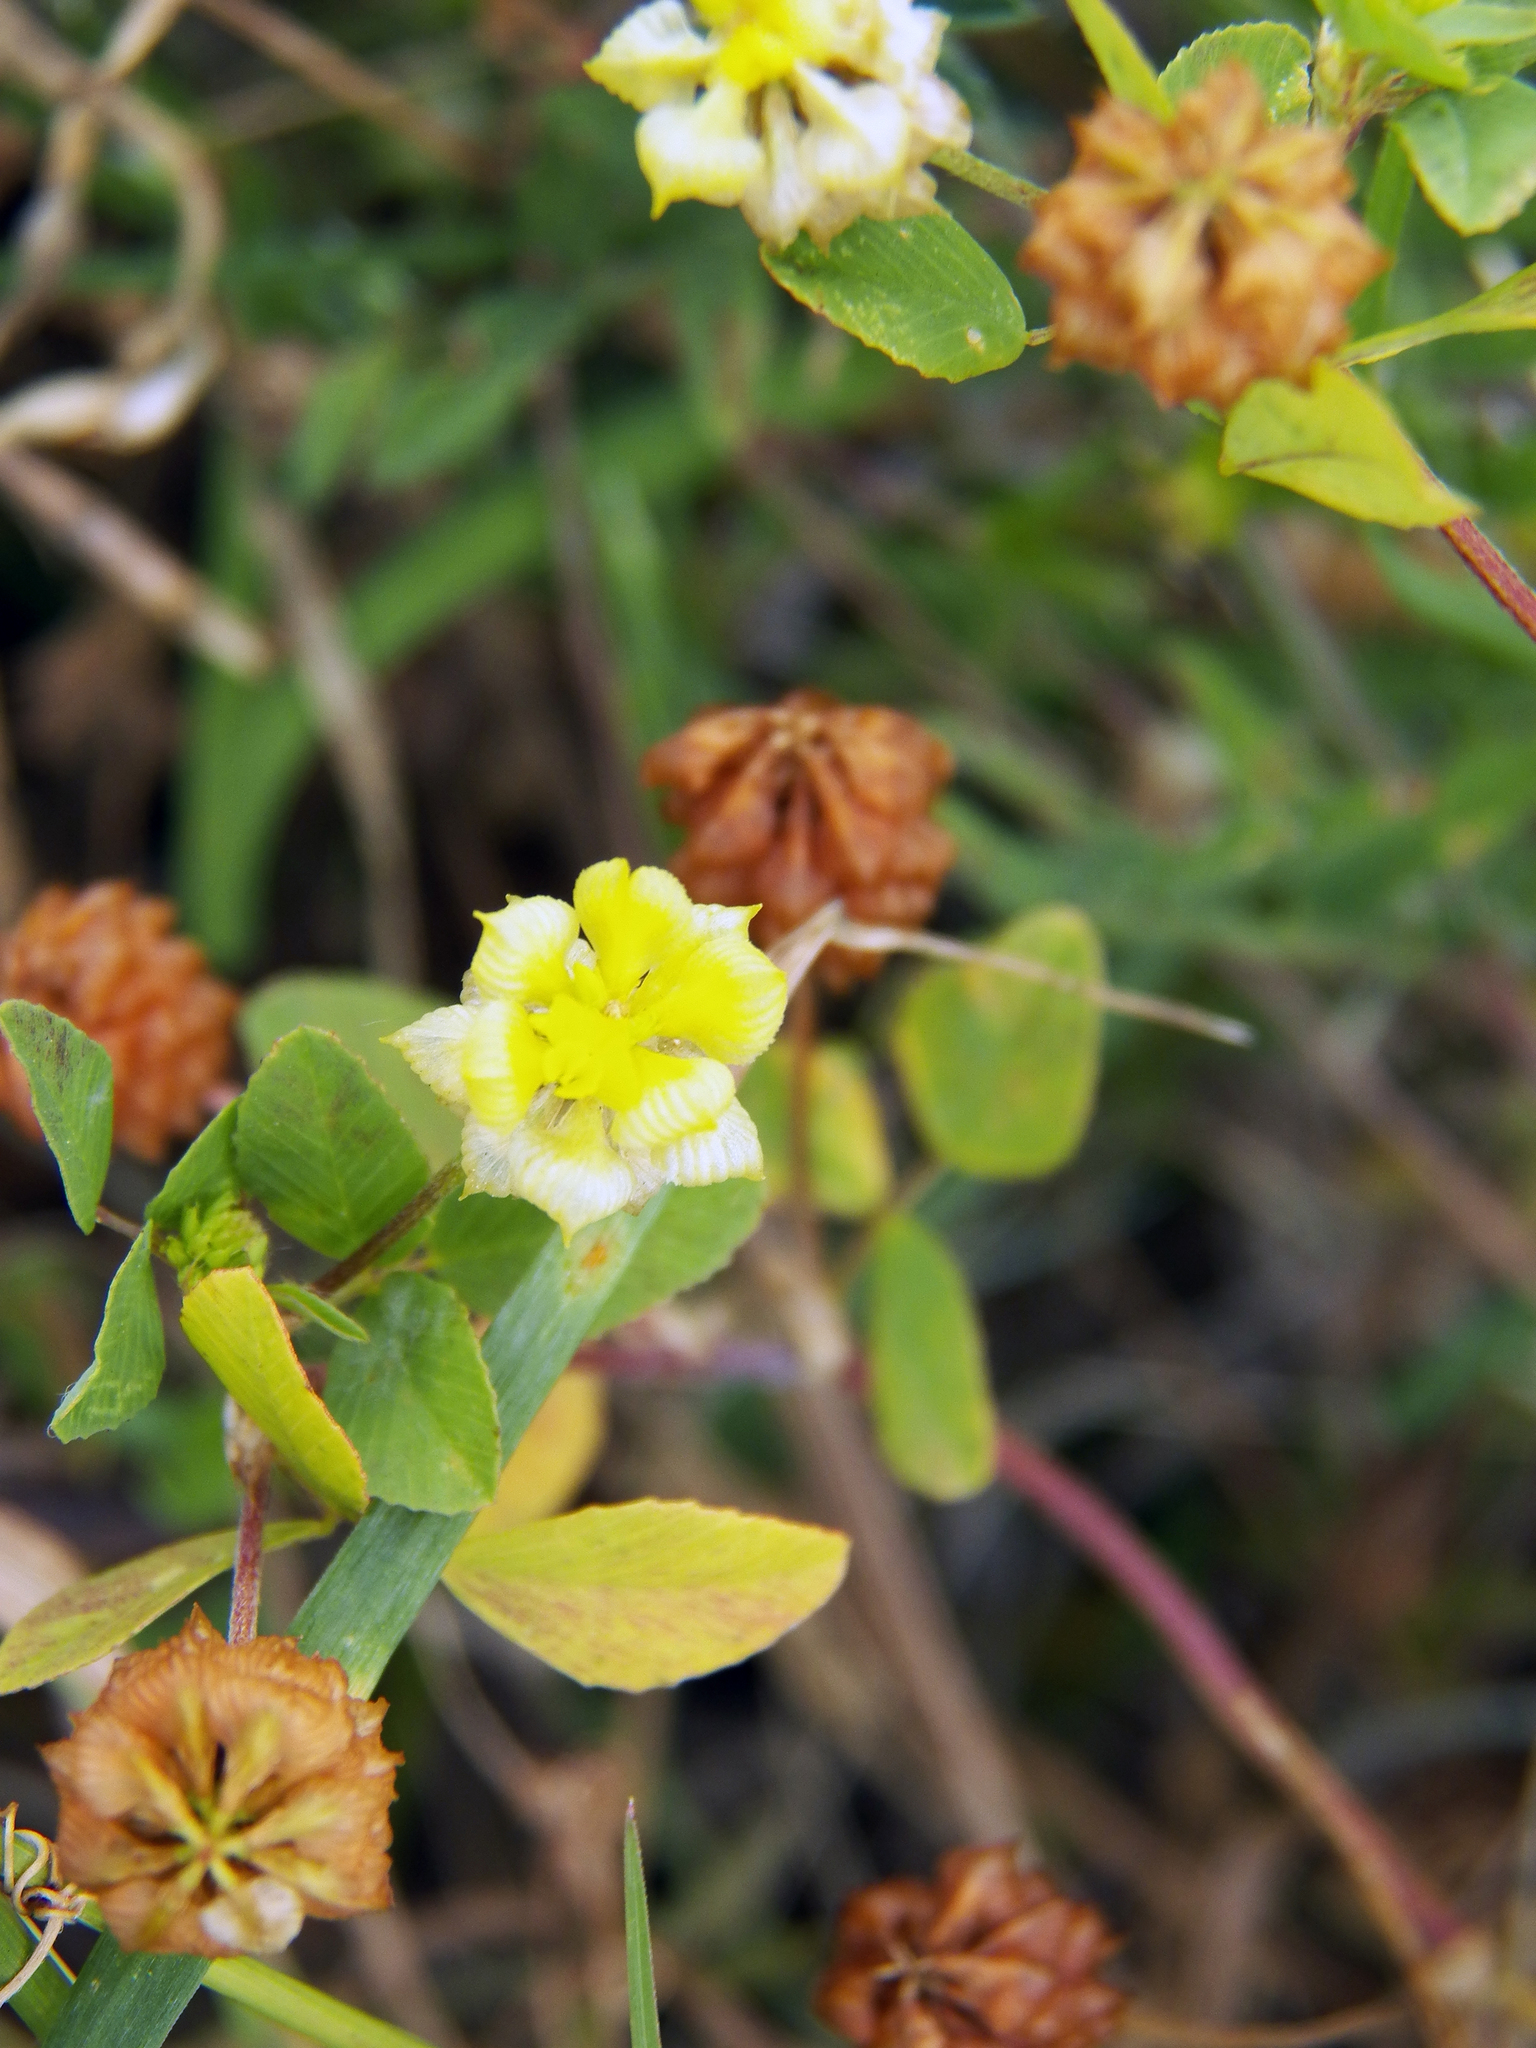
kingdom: Plantae
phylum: Tracheophyta
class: Magnoliopsida
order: Fabales
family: Fabaceae
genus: Trifolium
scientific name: Trifolium campestre
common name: Field clover
